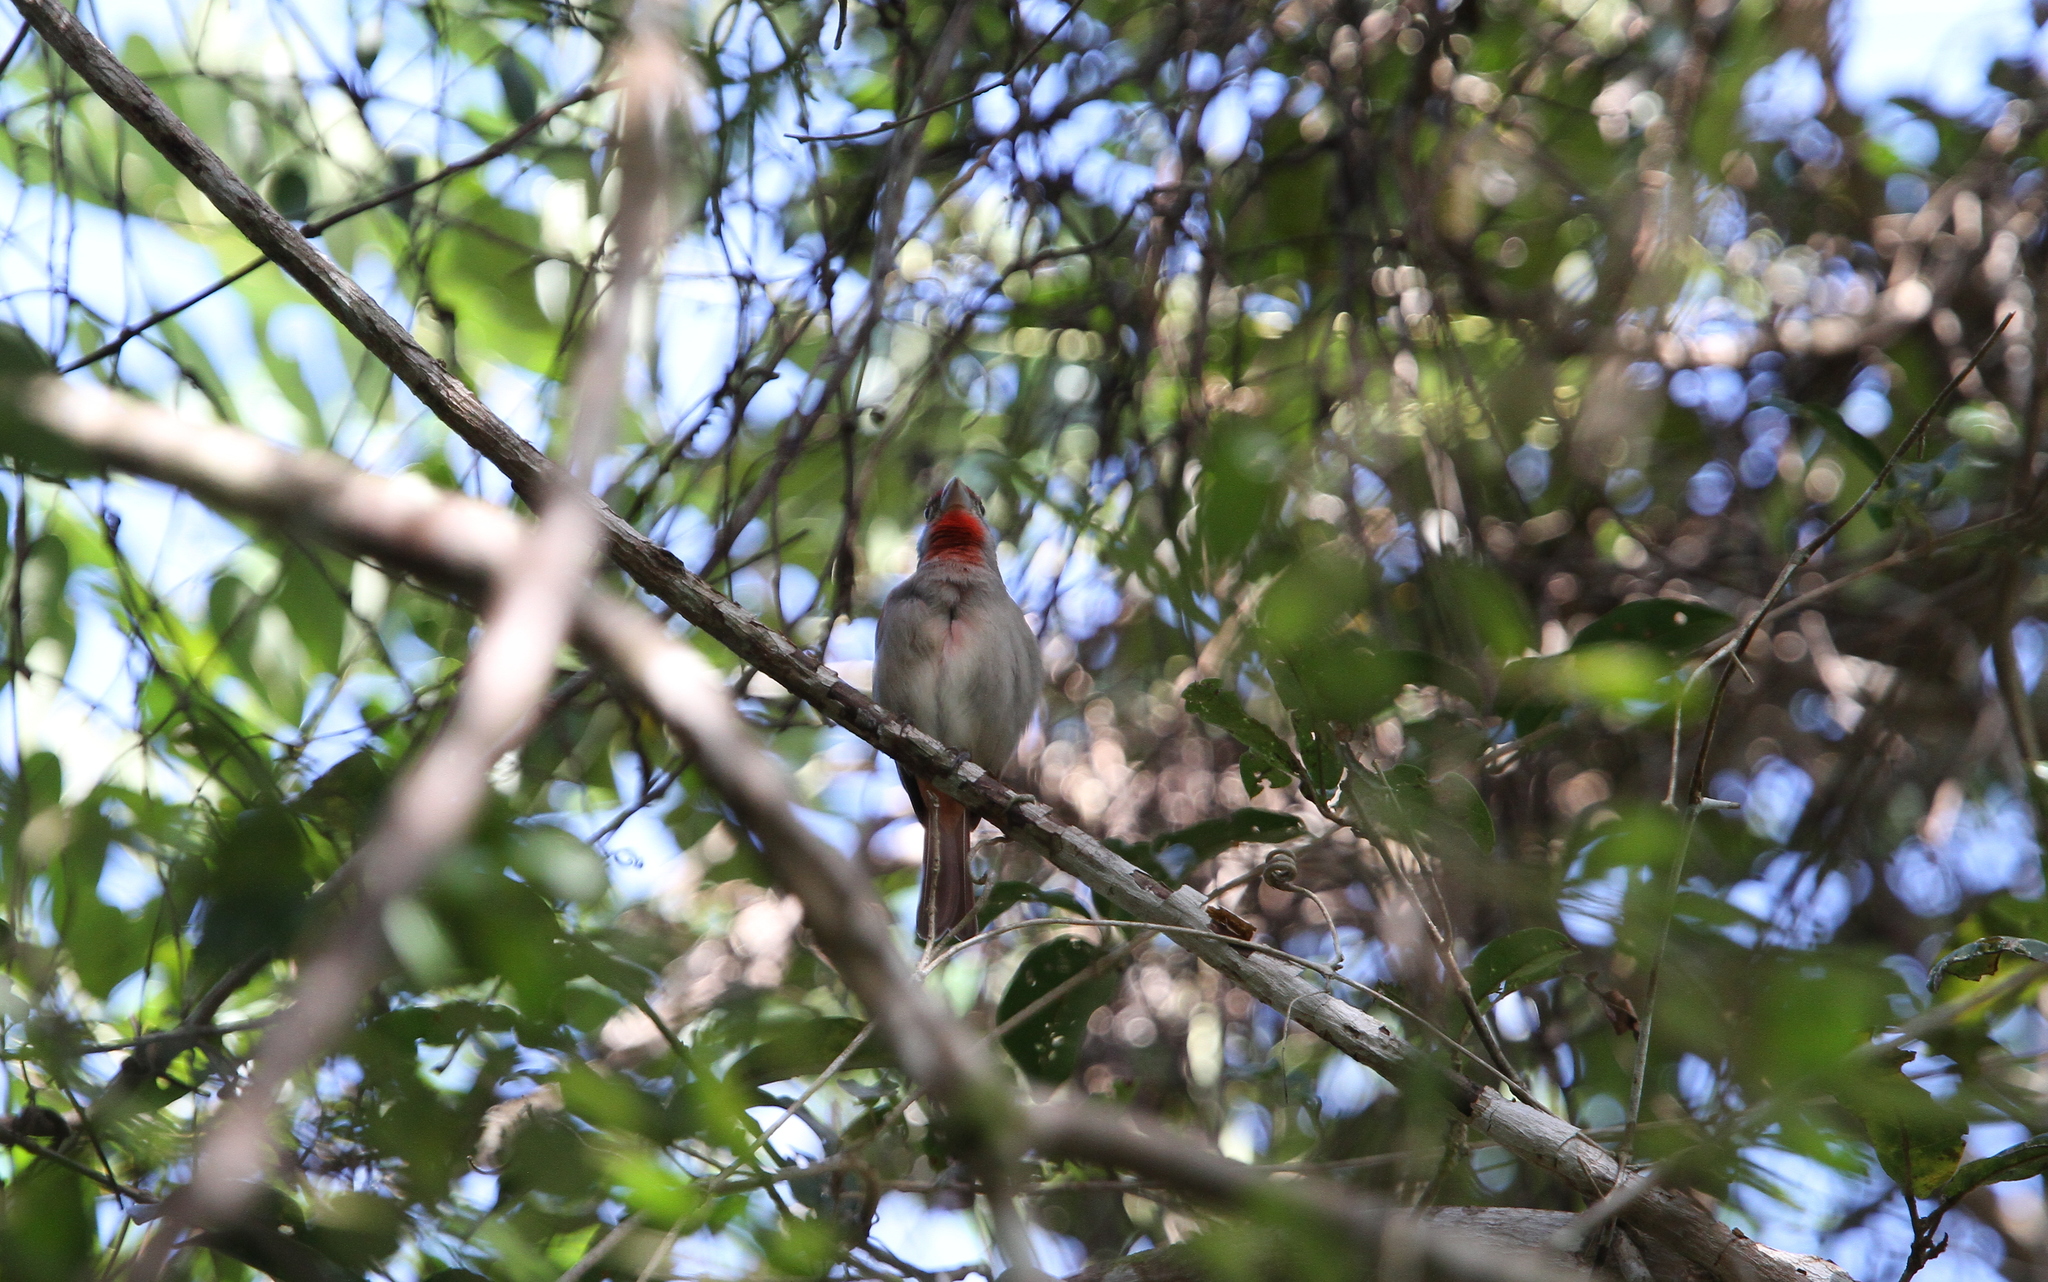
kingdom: Animalia
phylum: Chordata
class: Aves
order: Passeriformes
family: Cardinalidae
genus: Piranga
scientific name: Piranga roseogularis
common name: Rose-throated tanager
